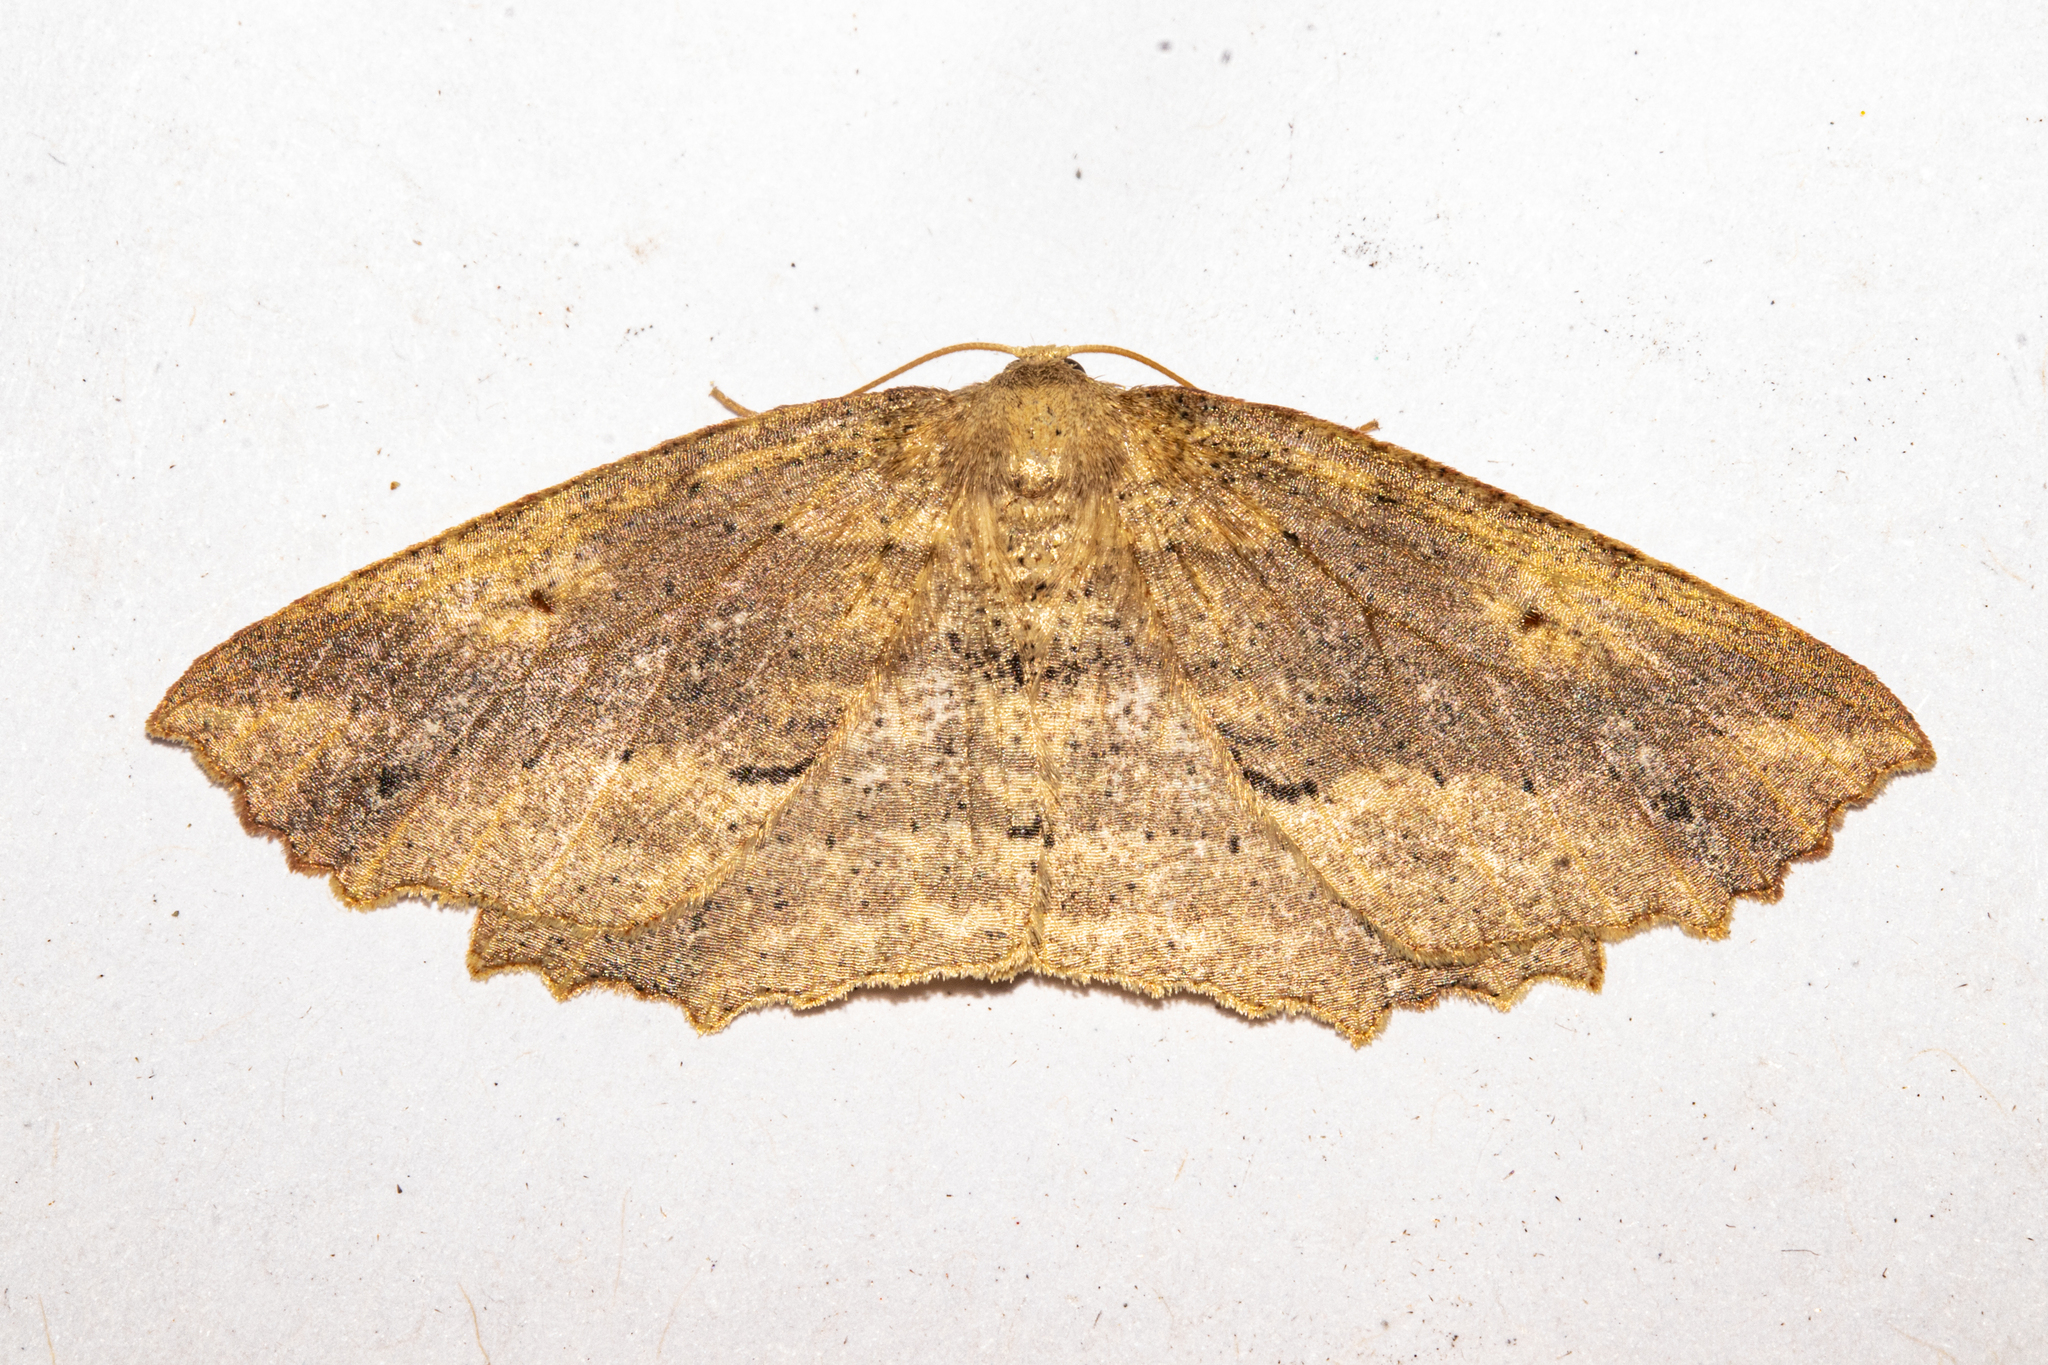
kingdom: Animalia
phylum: Arthropoda
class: Insecta
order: Lepidoptera
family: Geometridae
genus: Xyridacma
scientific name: Xyridacma veronicae
